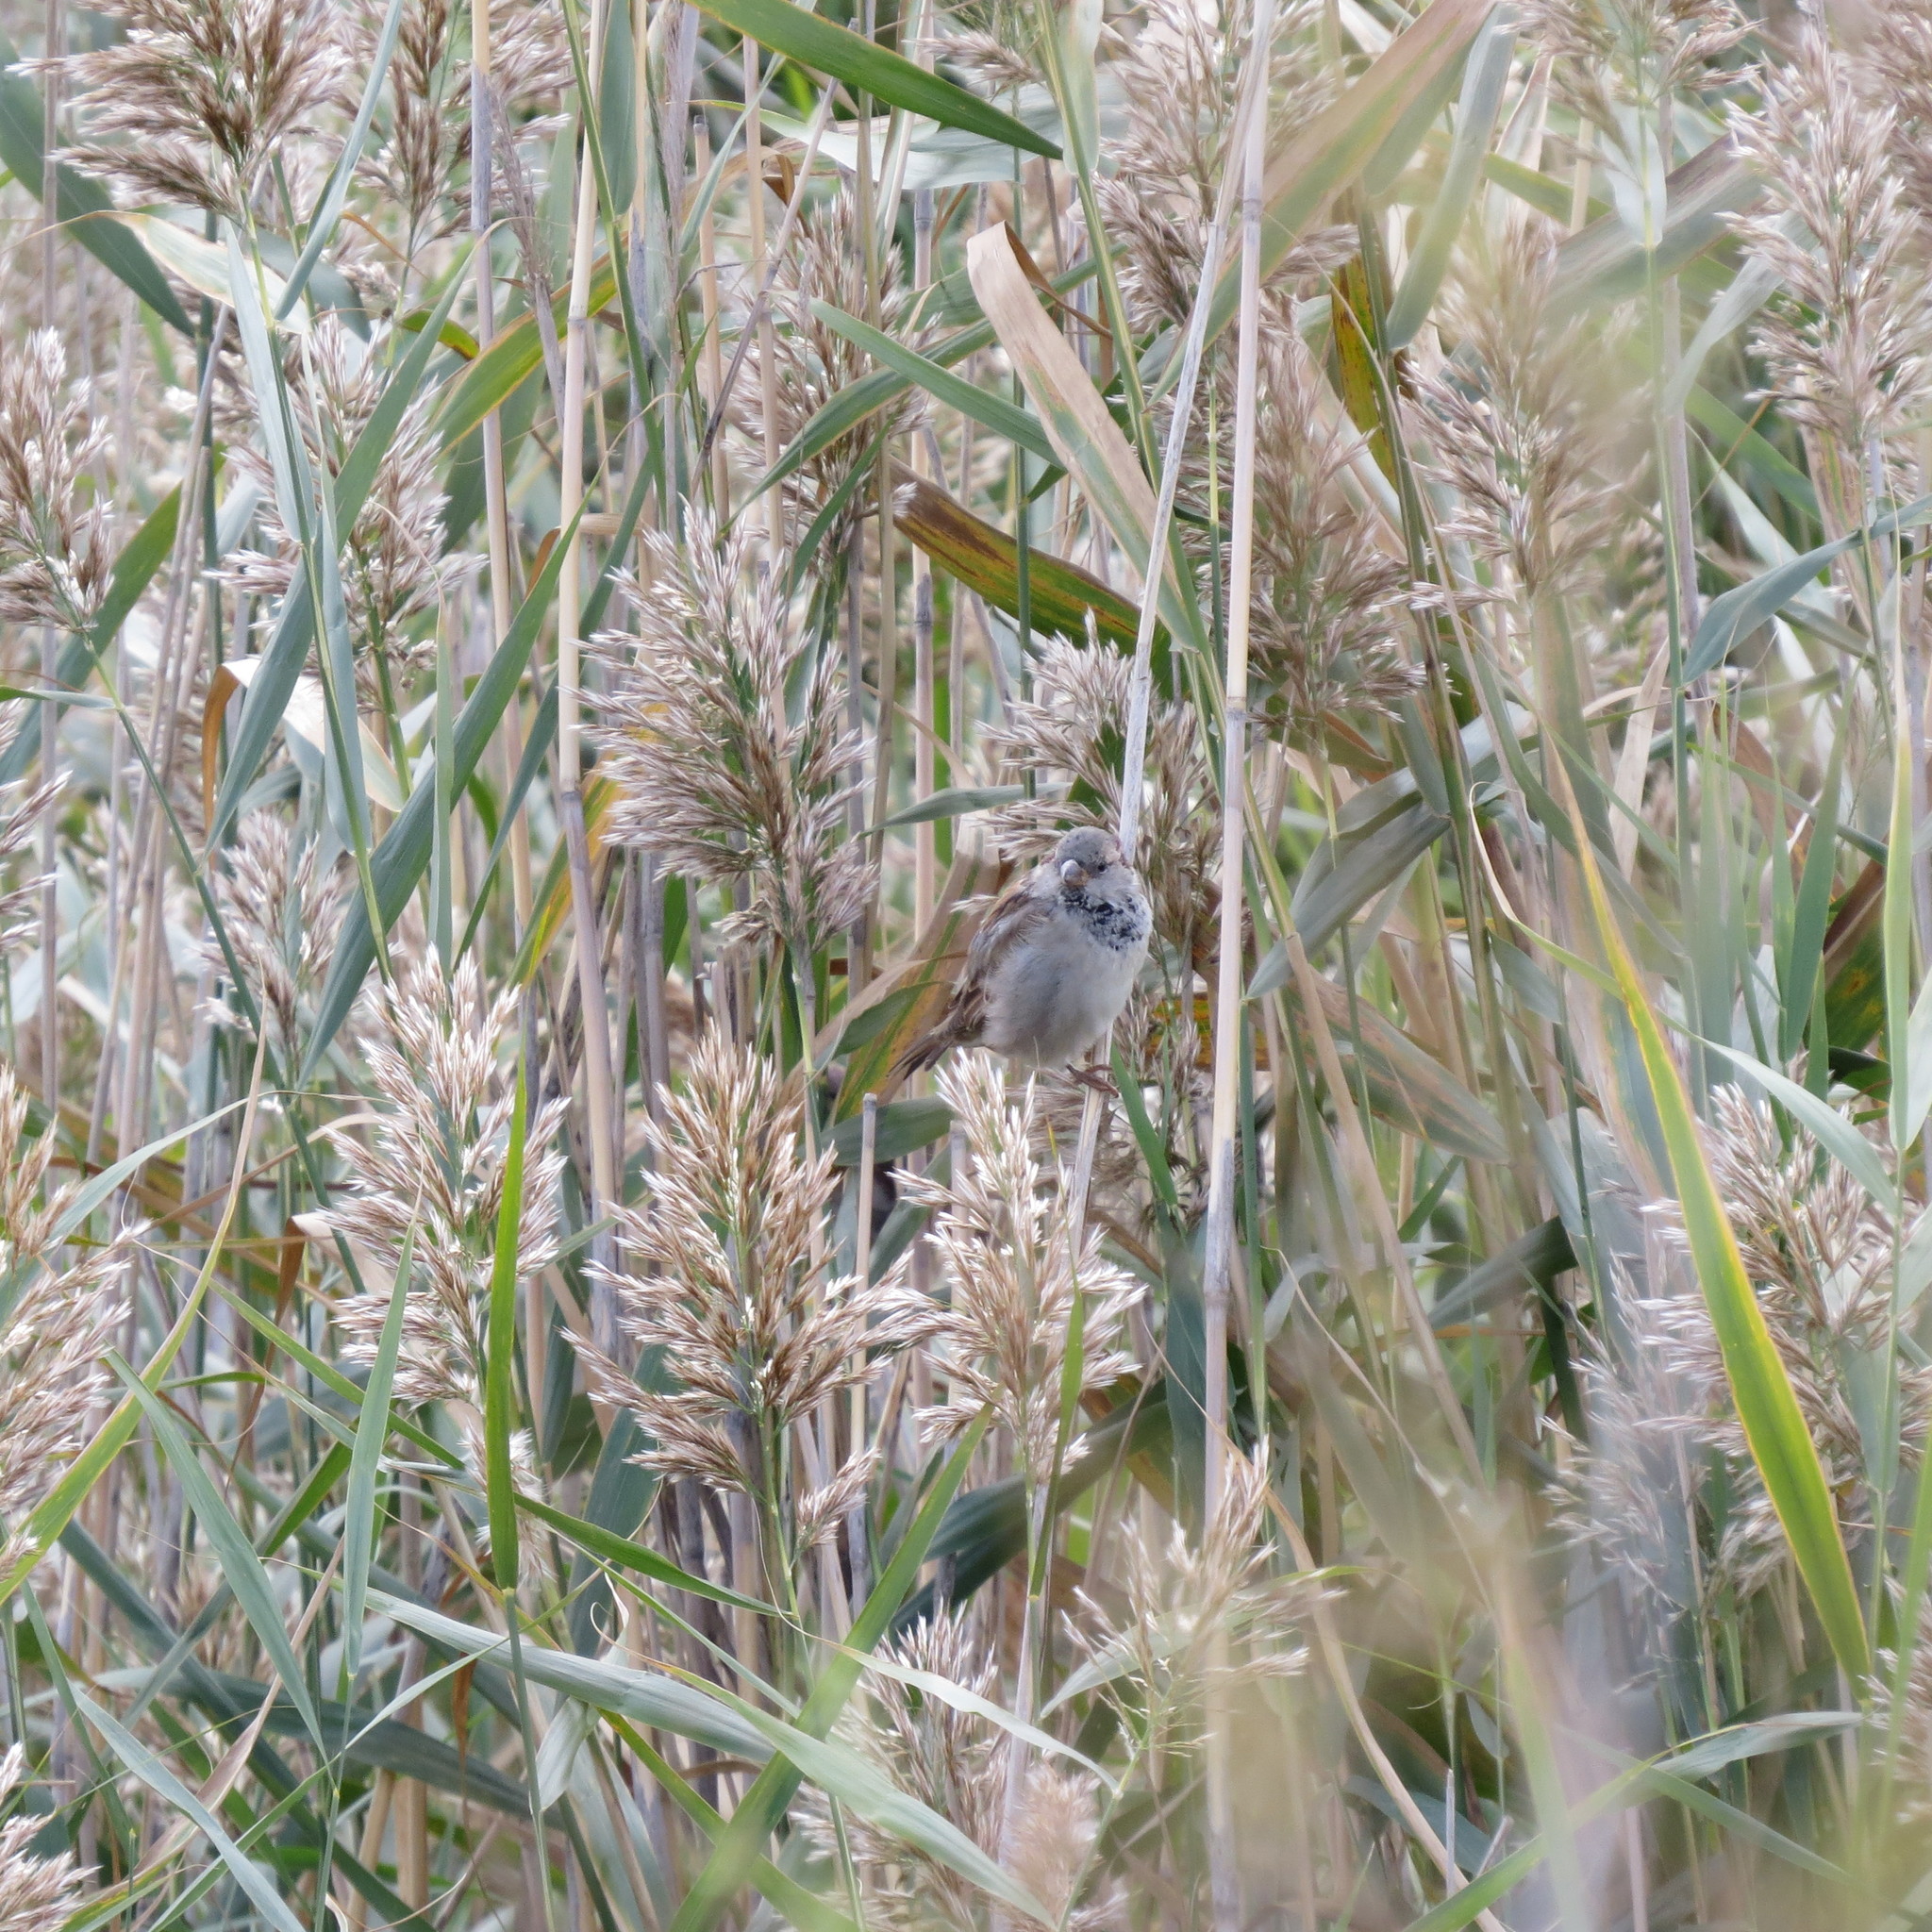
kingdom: Animalia
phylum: Chordata
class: Aves
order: Passeriformes
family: Passeridae
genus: Passer
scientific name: Passer domesticus
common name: House sparrow
